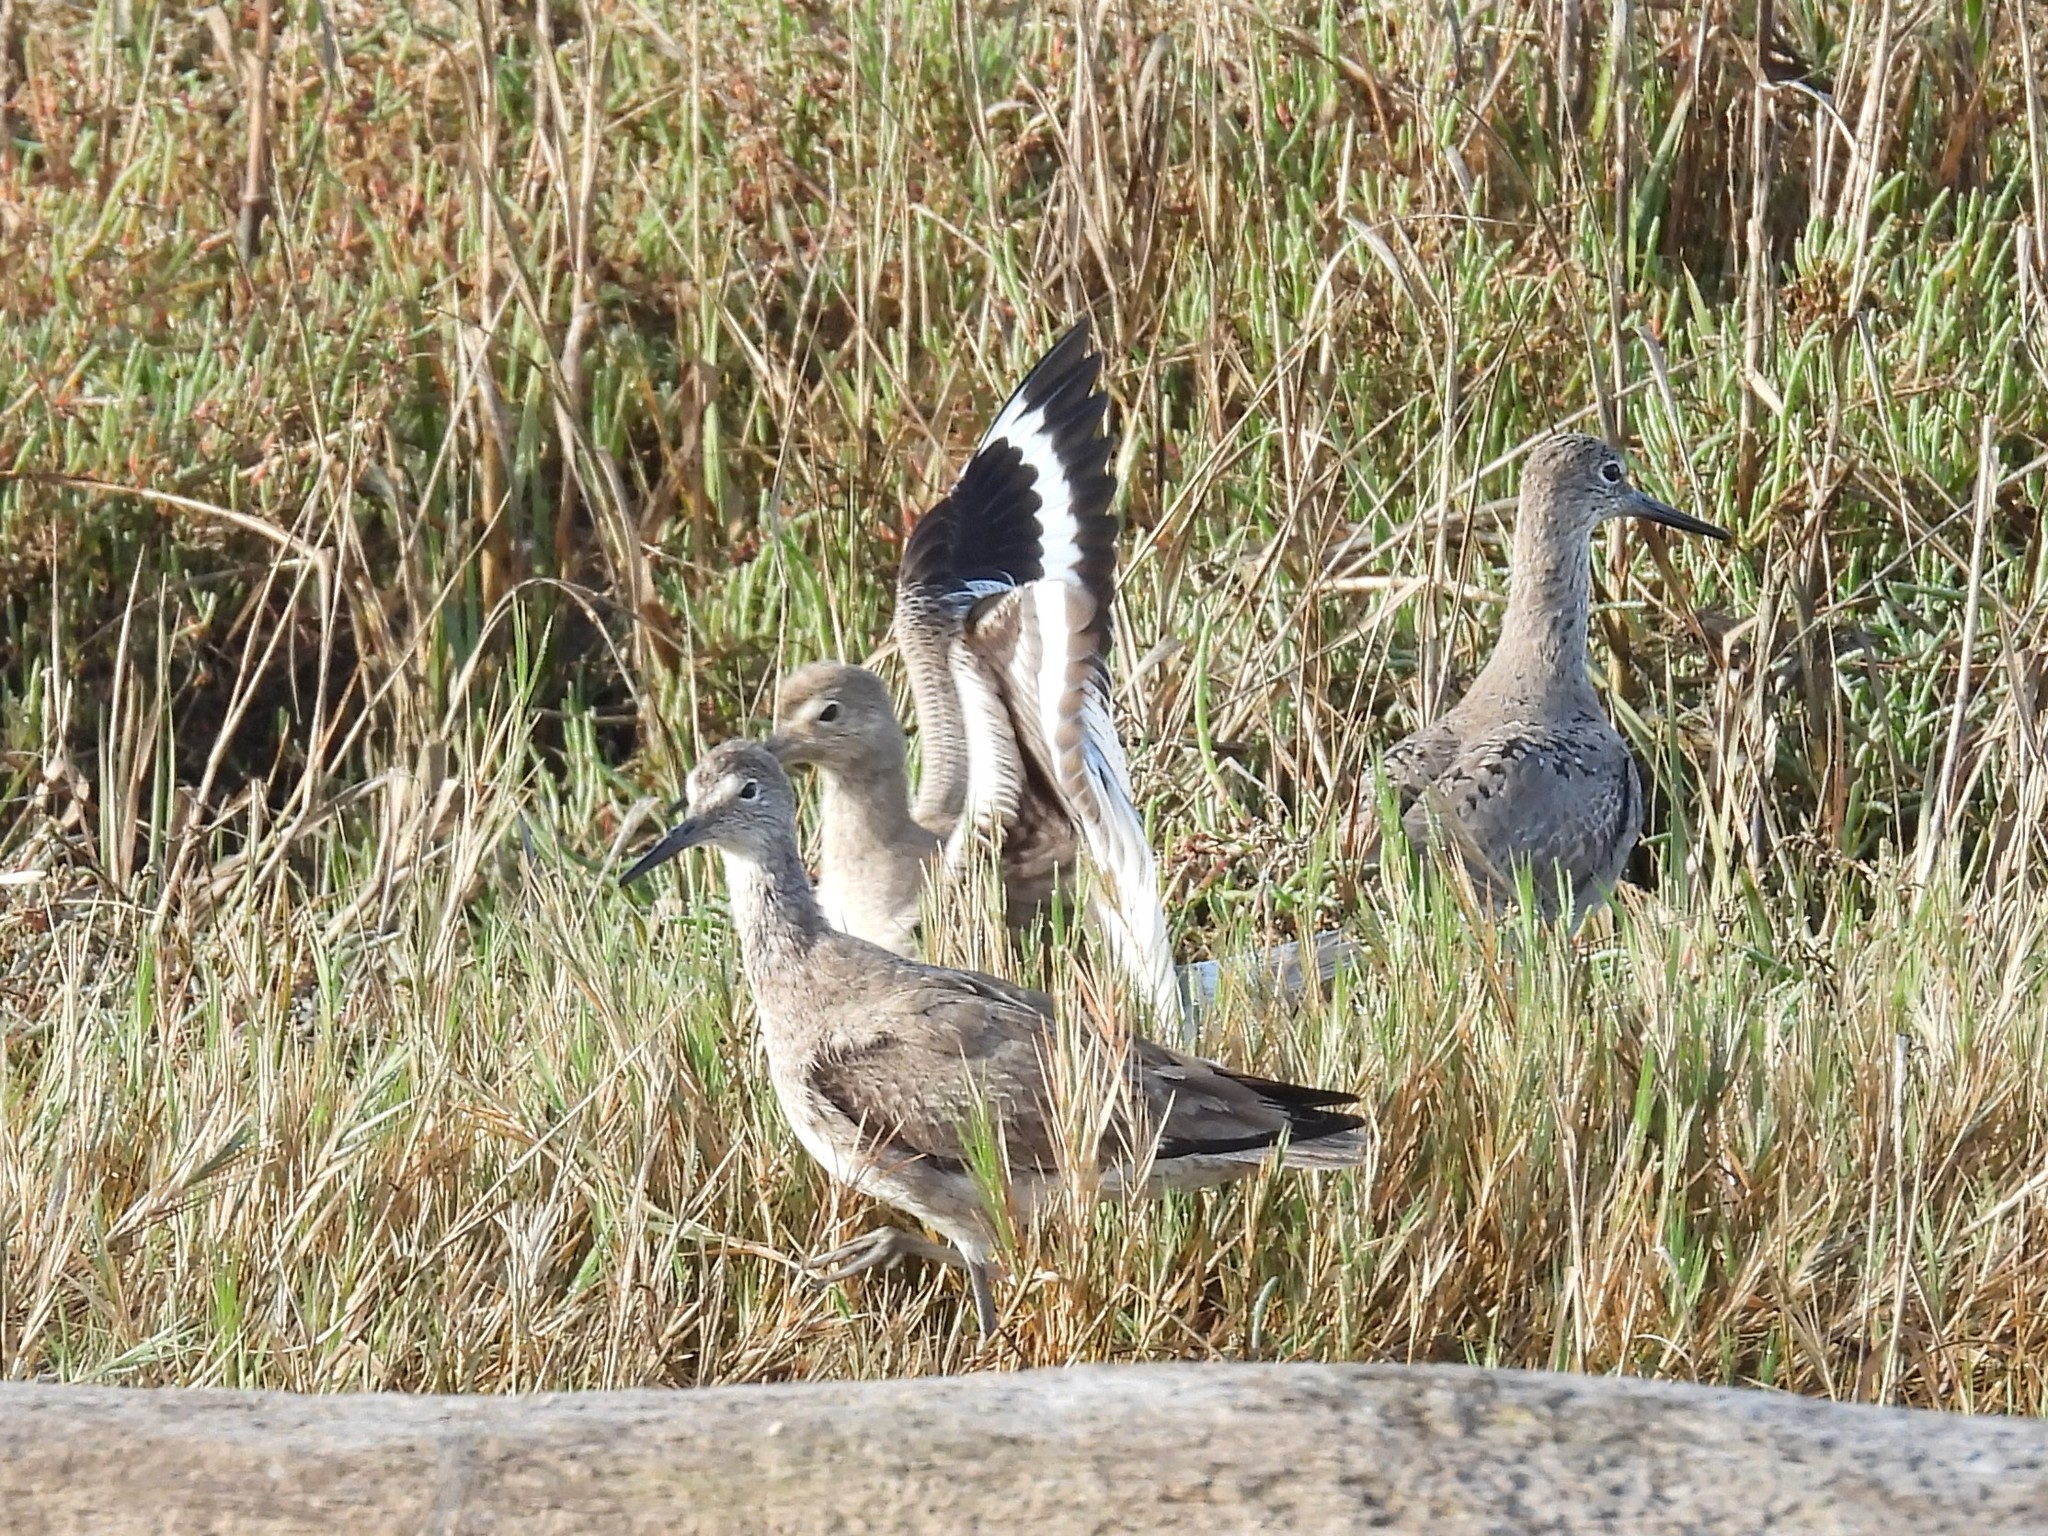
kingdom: Animalia
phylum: Chordata
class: Aves
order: Charadriiformes
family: Scolopacidae
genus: Tringa
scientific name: Tringa semipalmata
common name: Willet
